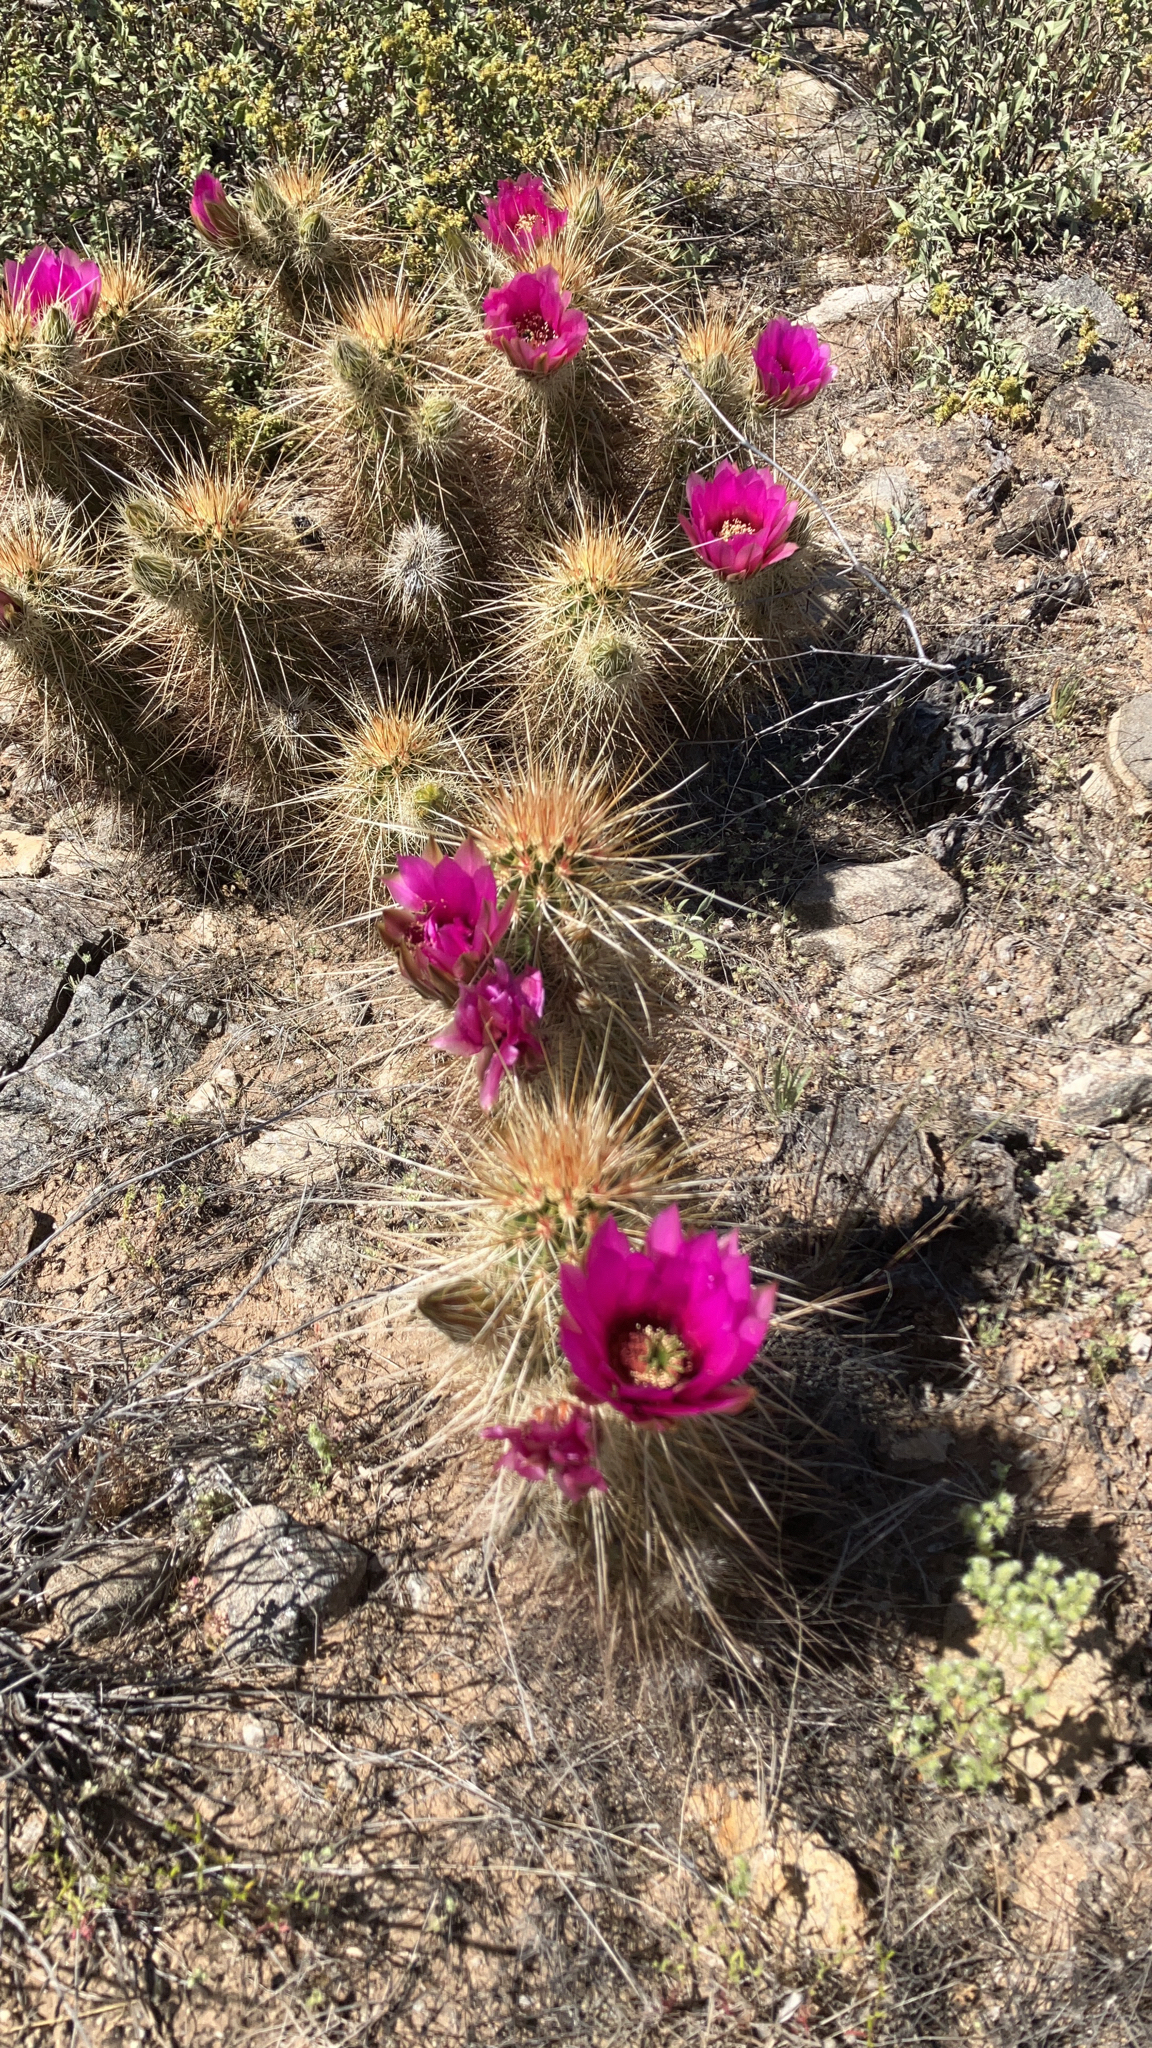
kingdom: Plantae
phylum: Tracheophyta
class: Magnoliopsida
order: Caryophyllales
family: Cactaceae
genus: Echinocereus
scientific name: Echinocereus engelmannii
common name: Engelmann's hedgehog cactus
